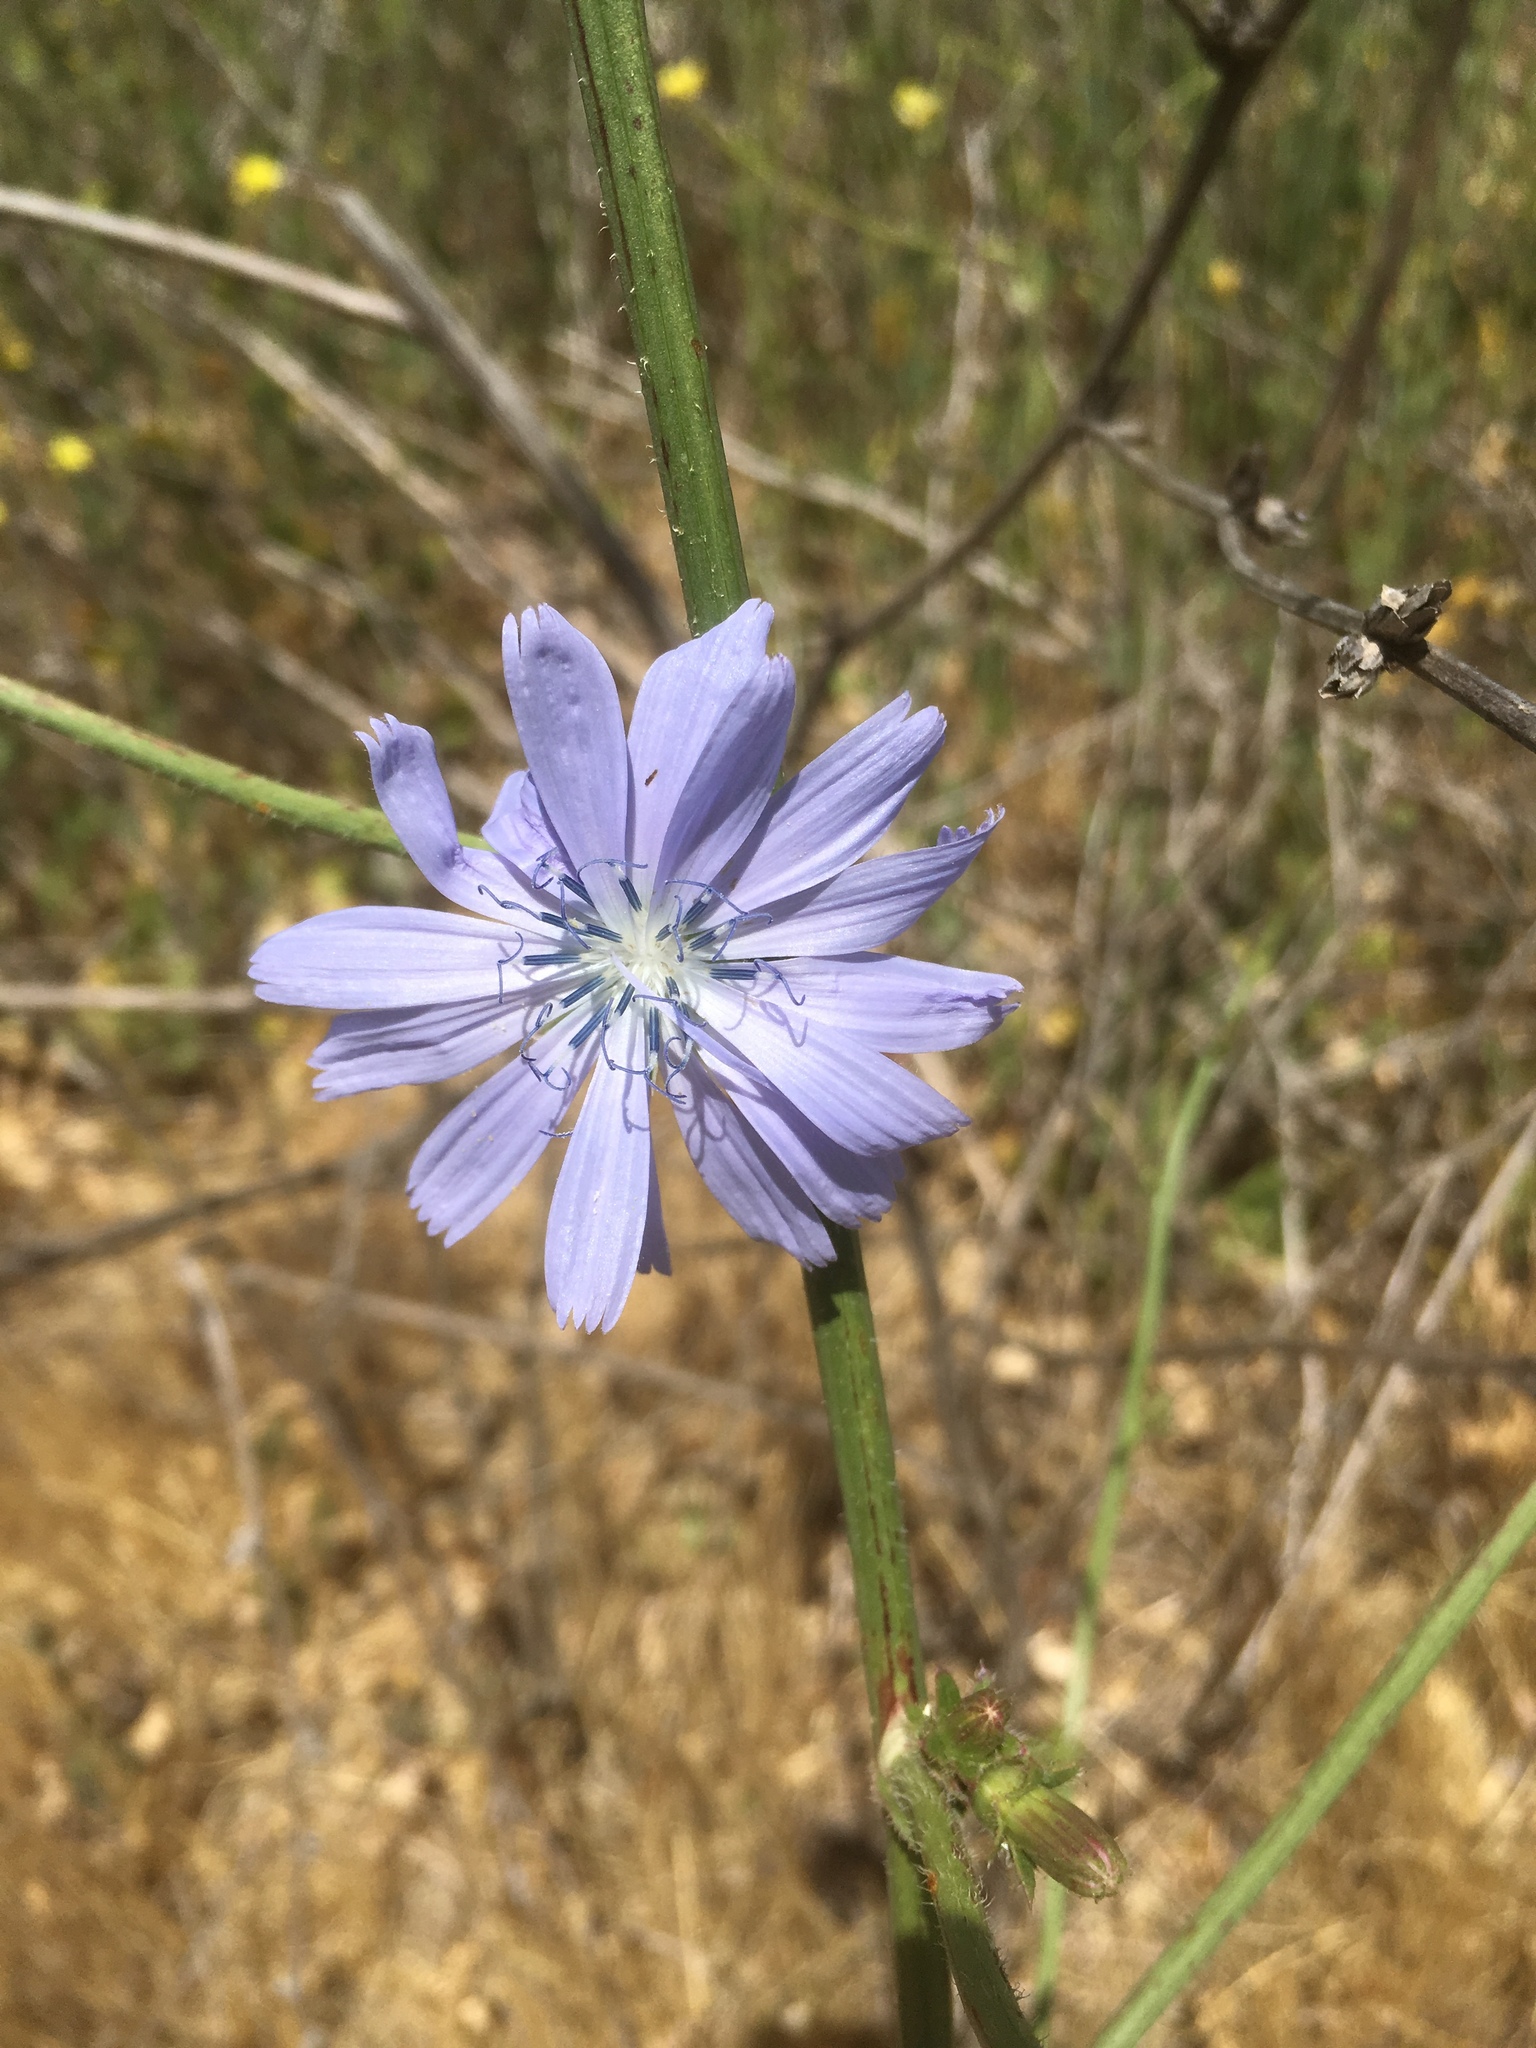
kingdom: Plantae
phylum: Tracheophyta
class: Magnoliopsida
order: Asterales
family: Asteraceae
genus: Cichorium
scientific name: Cichorium intybus
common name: Chicory
